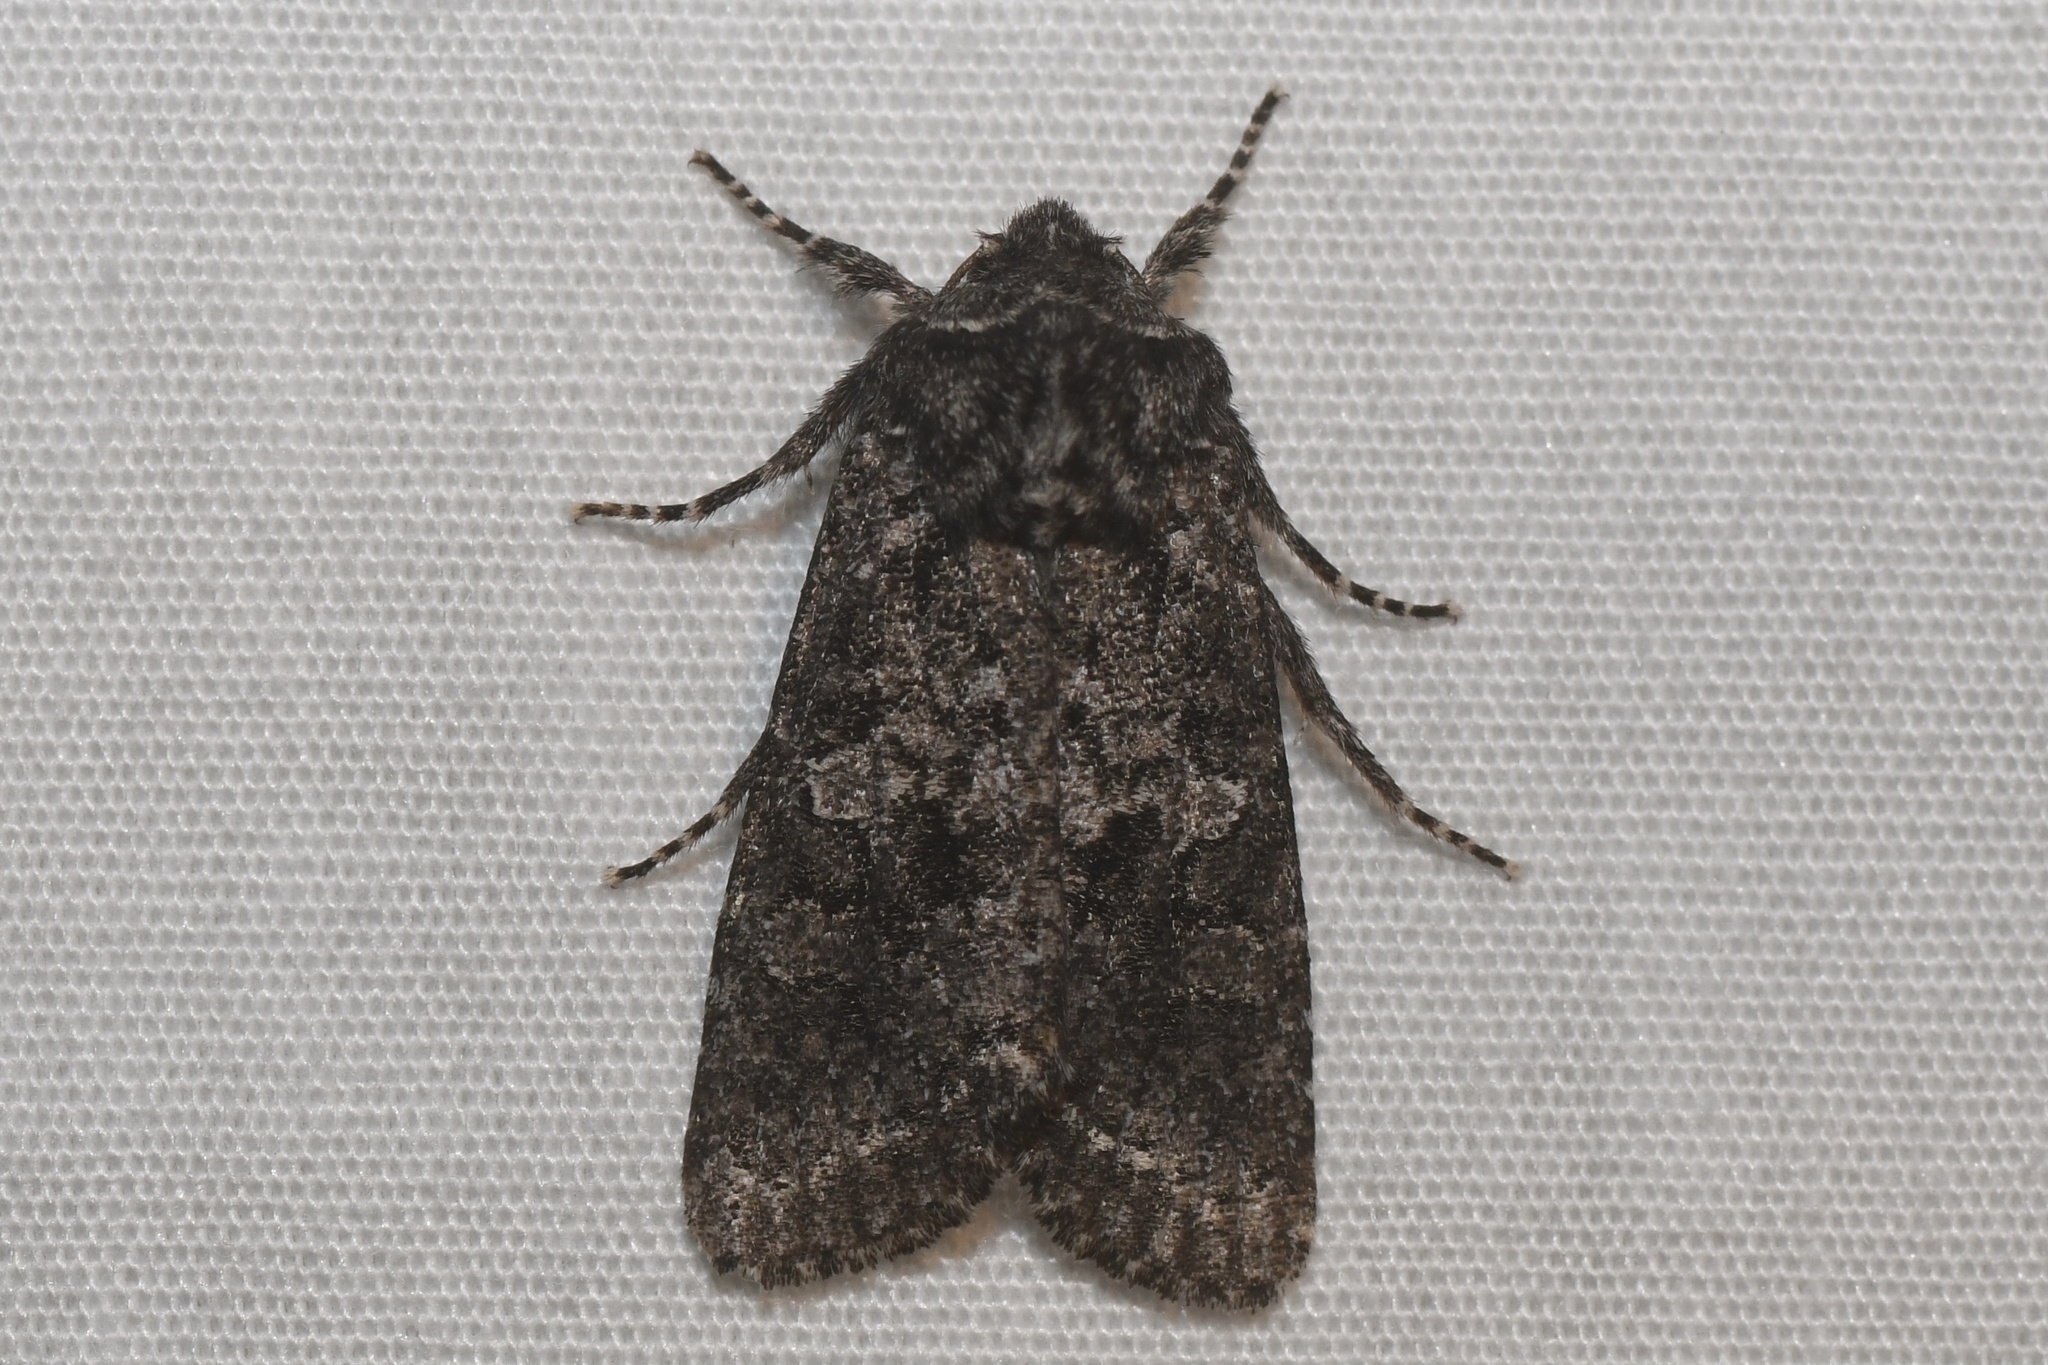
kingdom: Animalia
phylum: Arthropoda
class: Insecta
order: Lepidoptera
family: Noctuidae
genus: Egira
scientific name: Egira dolosa
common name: Lined black aspen cat.
